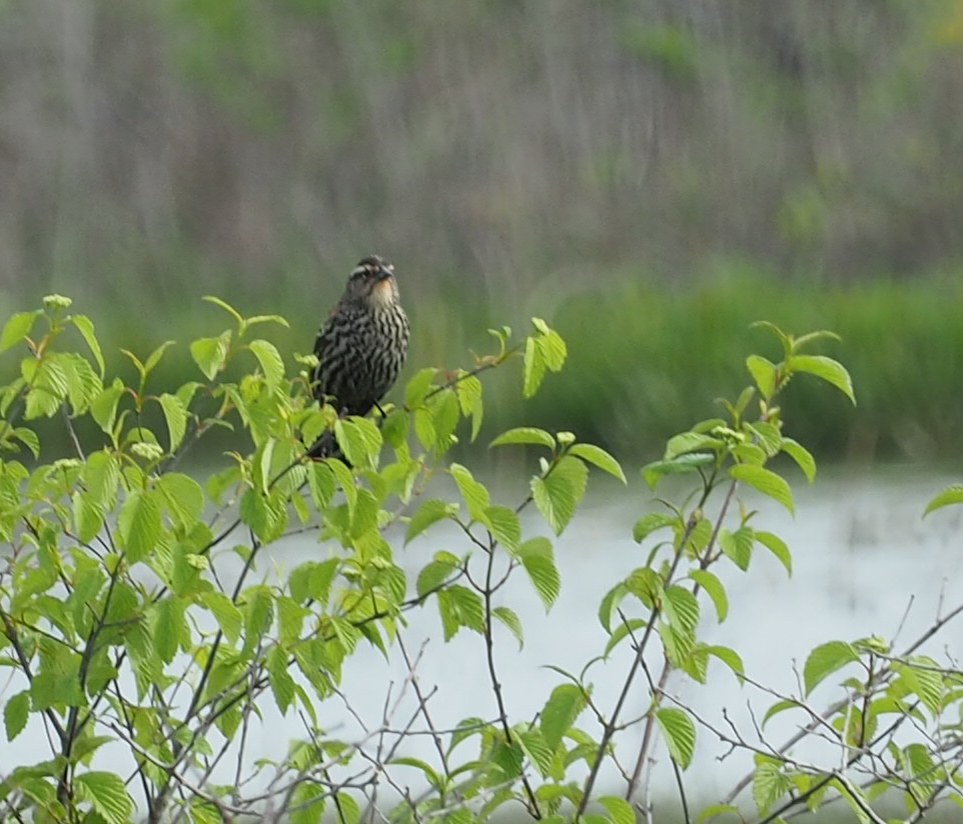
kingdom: Animalia
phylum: Chordata
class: Aves
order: Passeriformes
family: Icteridae
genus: Agelaius
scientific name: Agelaius phoeniceus
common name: Red-winged blackbird
